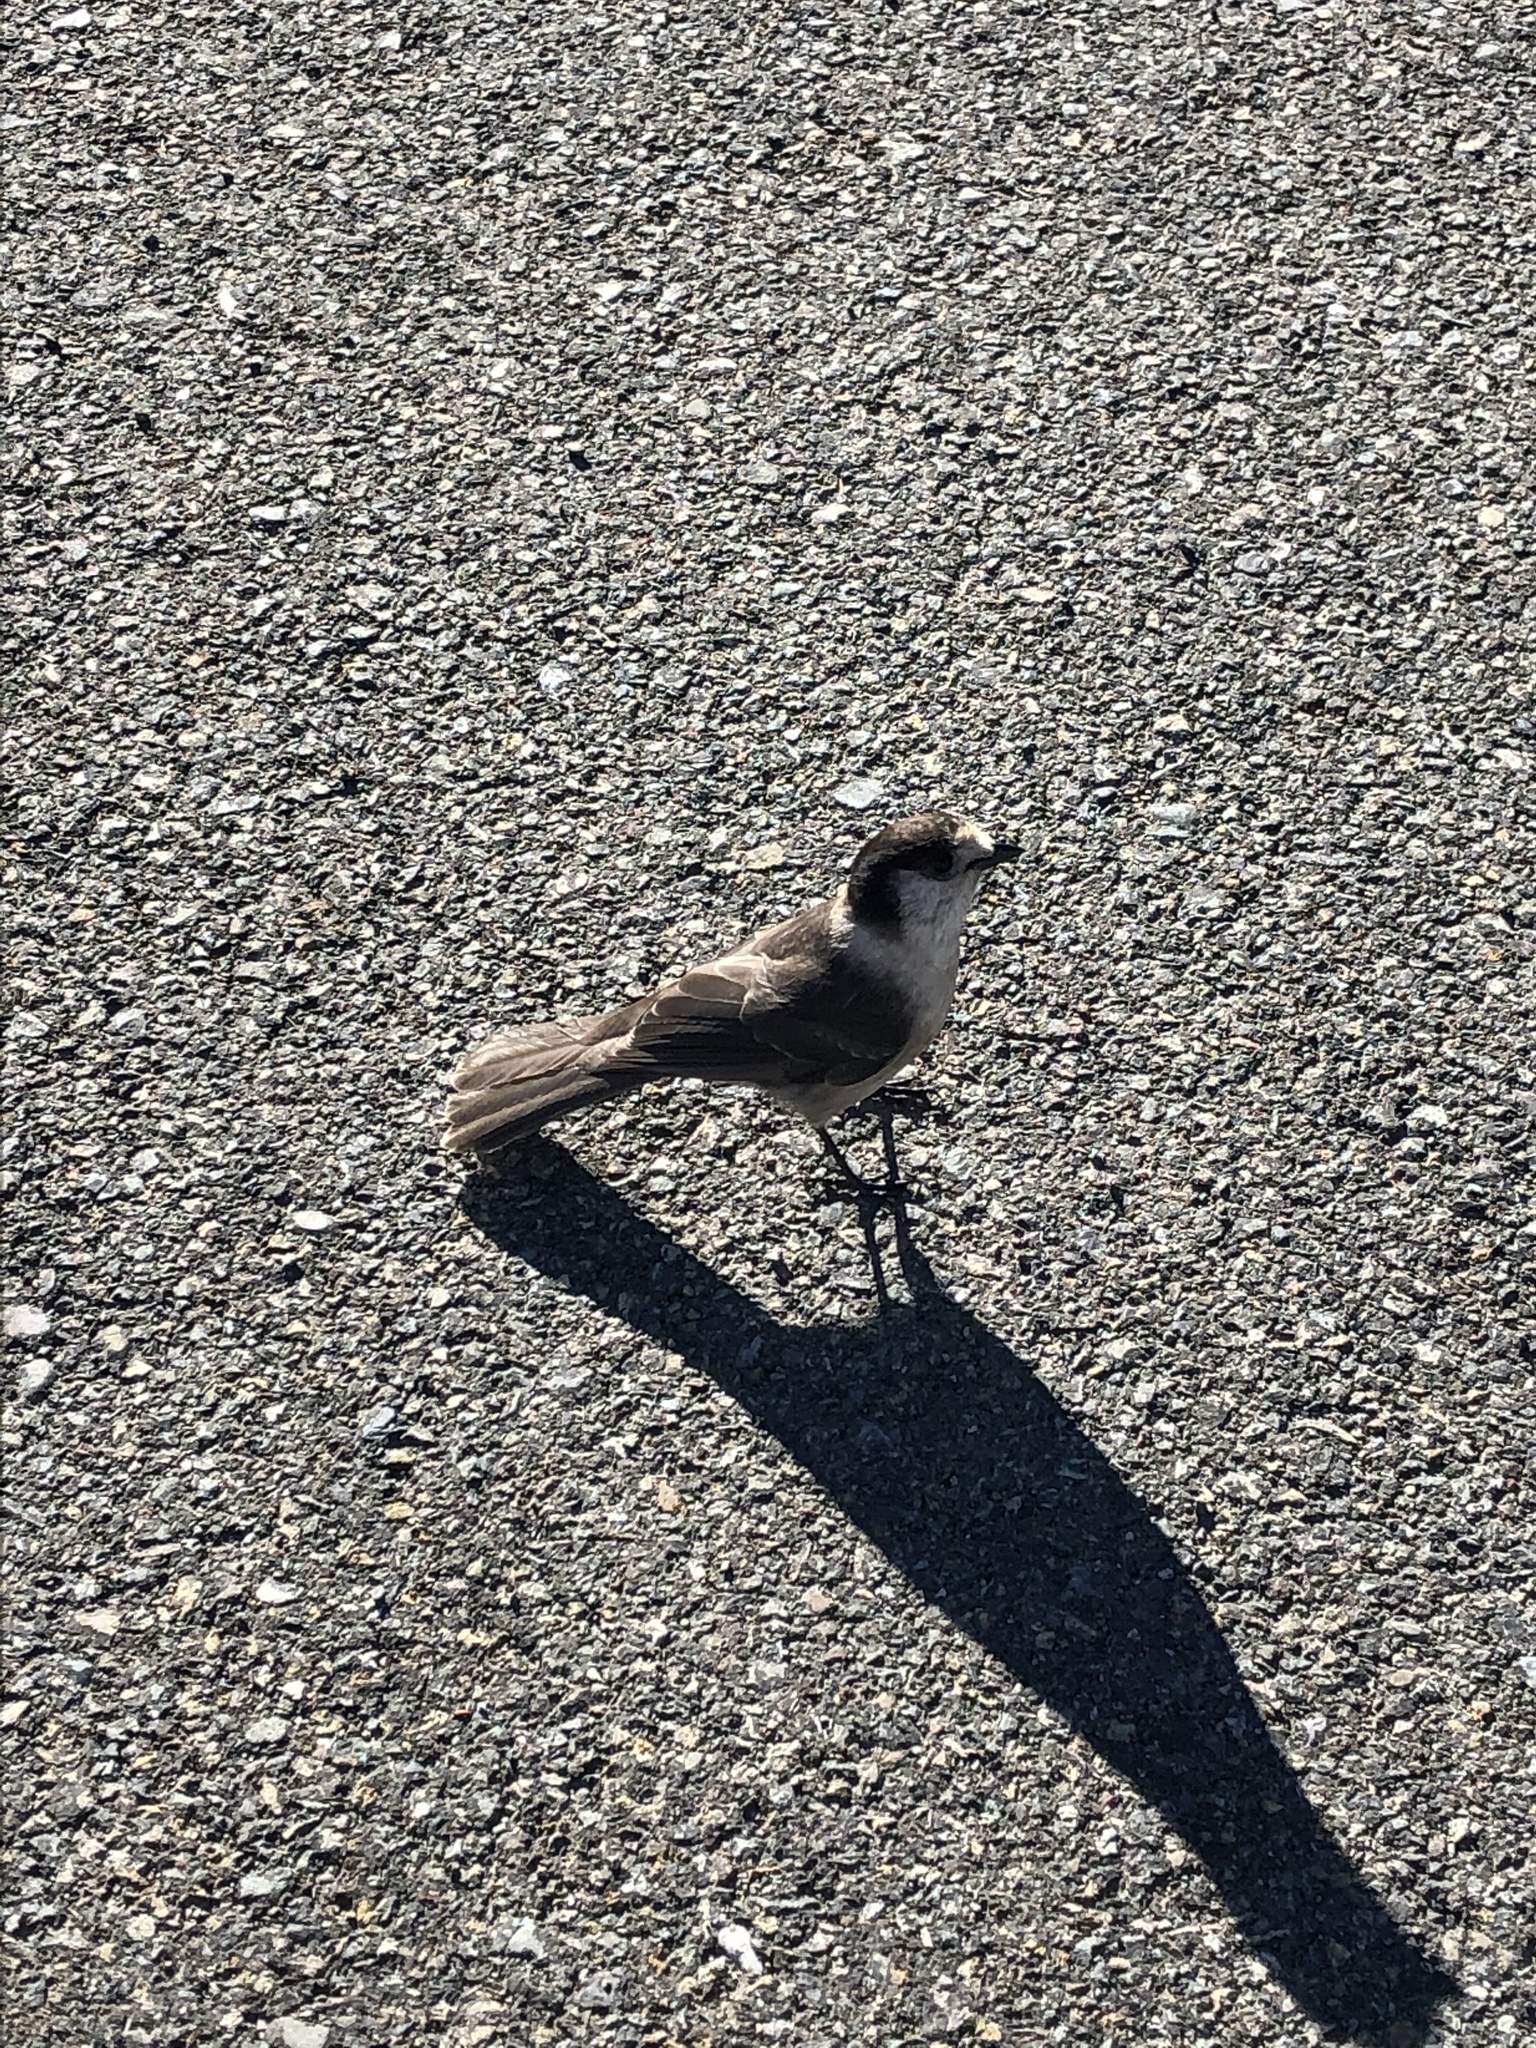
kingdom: Animalia
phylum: Chordata
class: Aves
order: Passeriformes
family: Corvidae
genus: Perisoreus
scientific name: Perisoreus canadensis
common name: Gray jay
